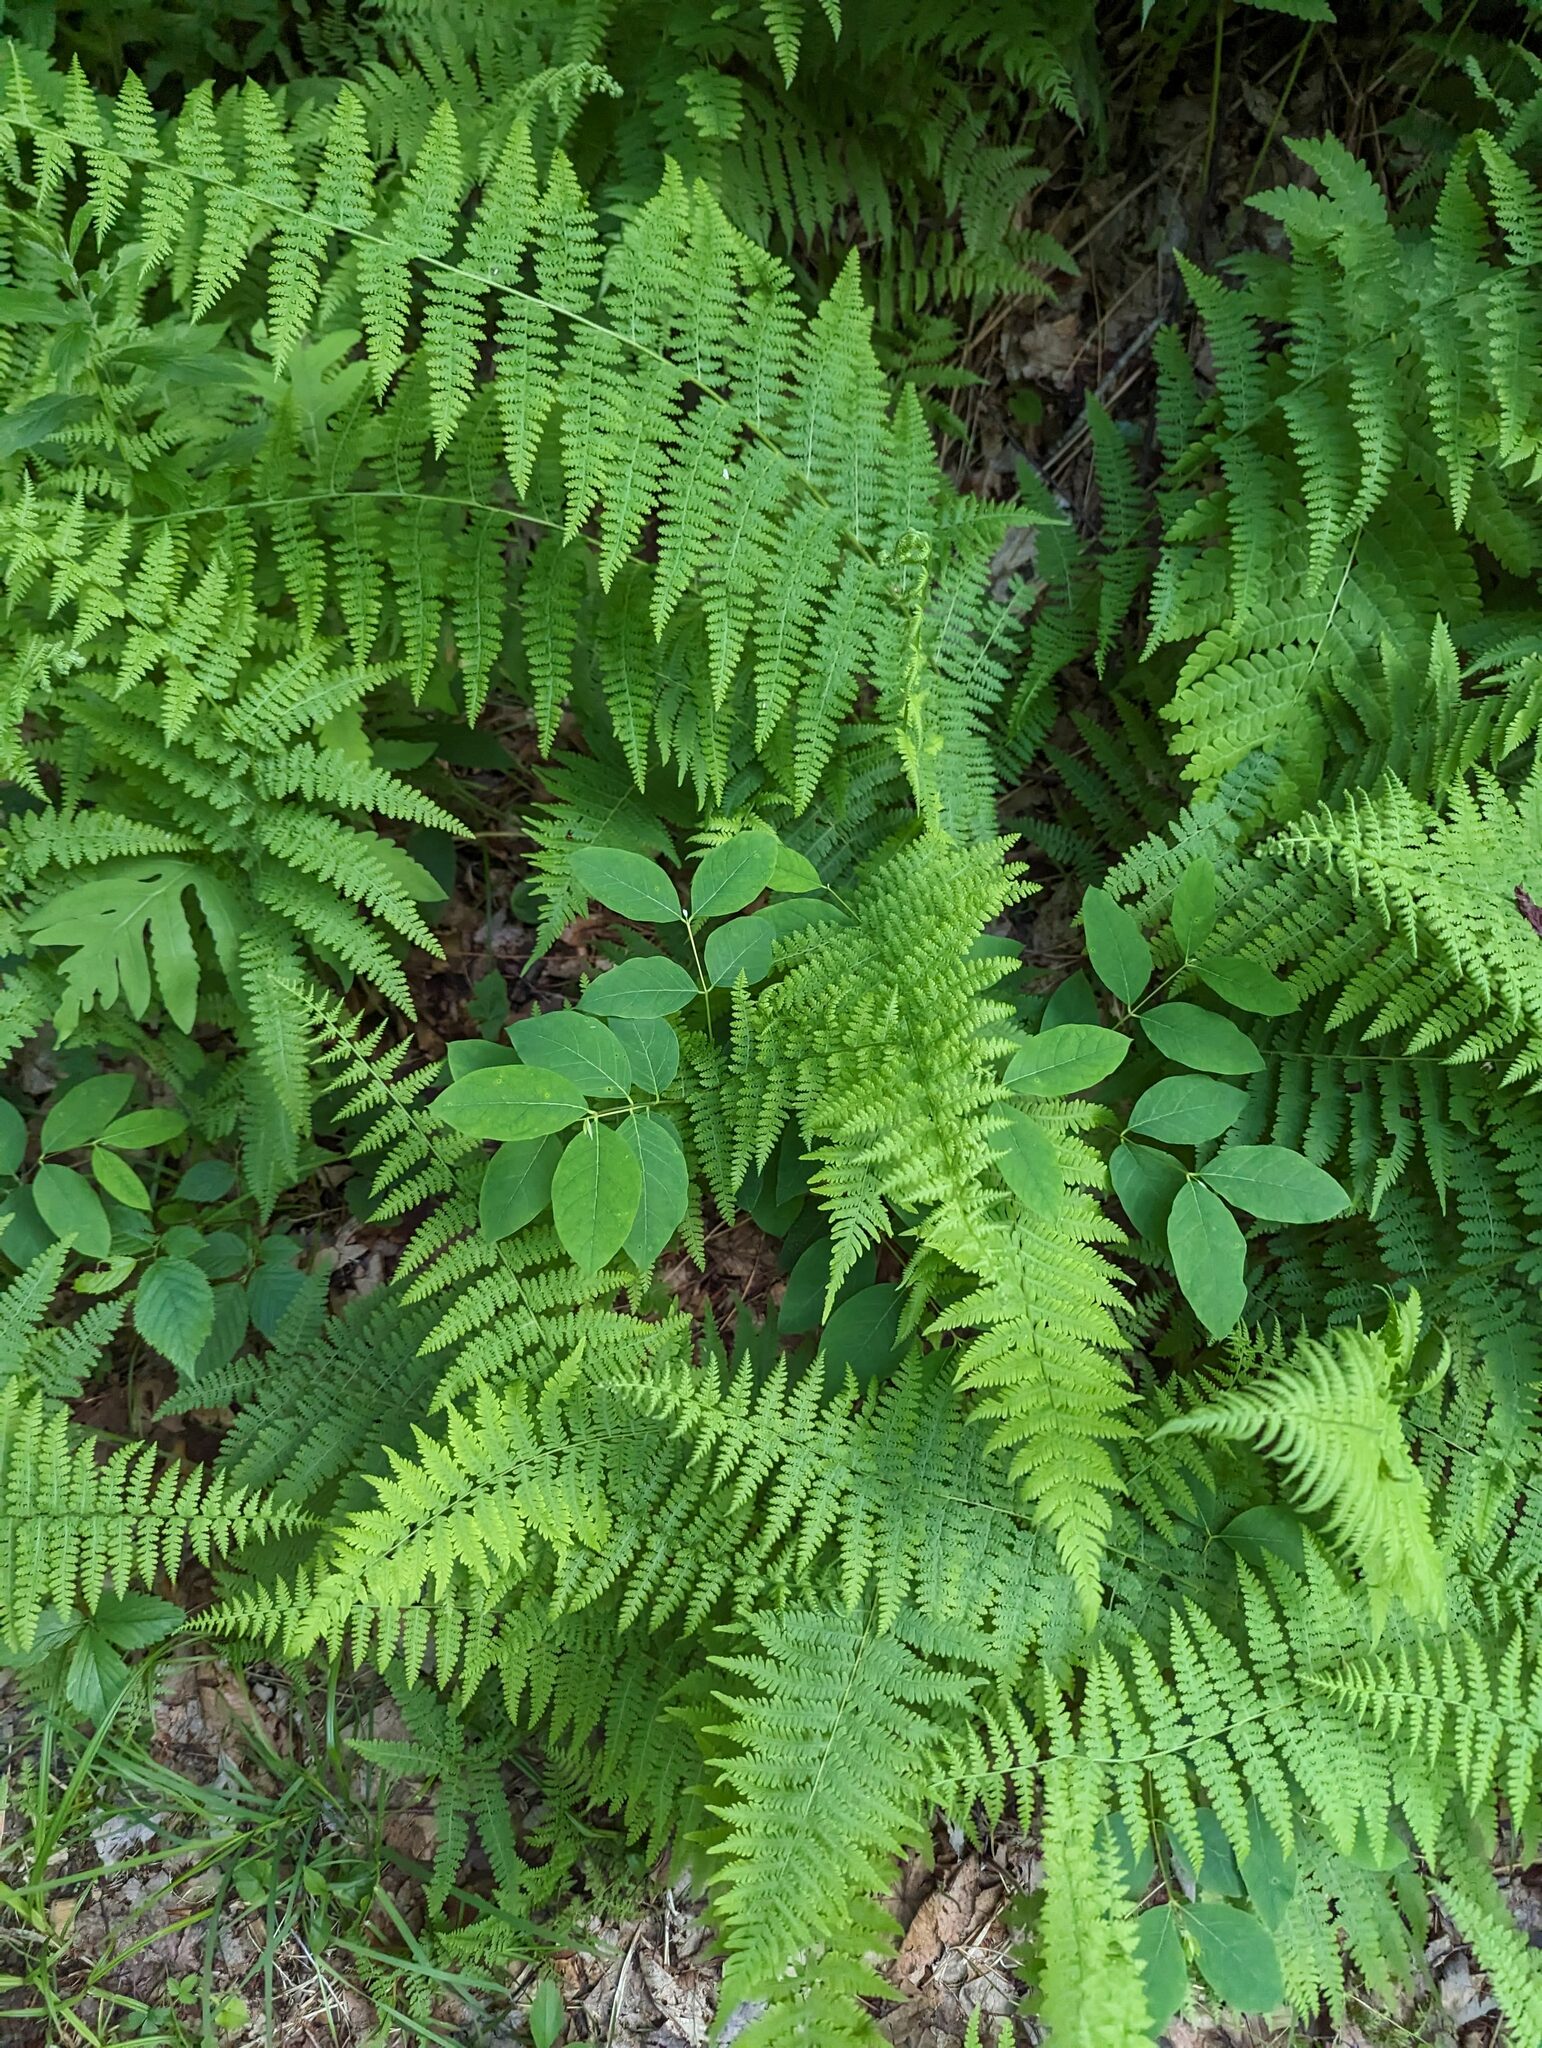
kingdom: Plantae
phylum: Tracheophyta
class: Magnoliopsida
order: Gentianales
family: Apocynaceae
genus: Apocynum
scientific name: Apocynum androsaemifolium
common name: Spreading dogbane
